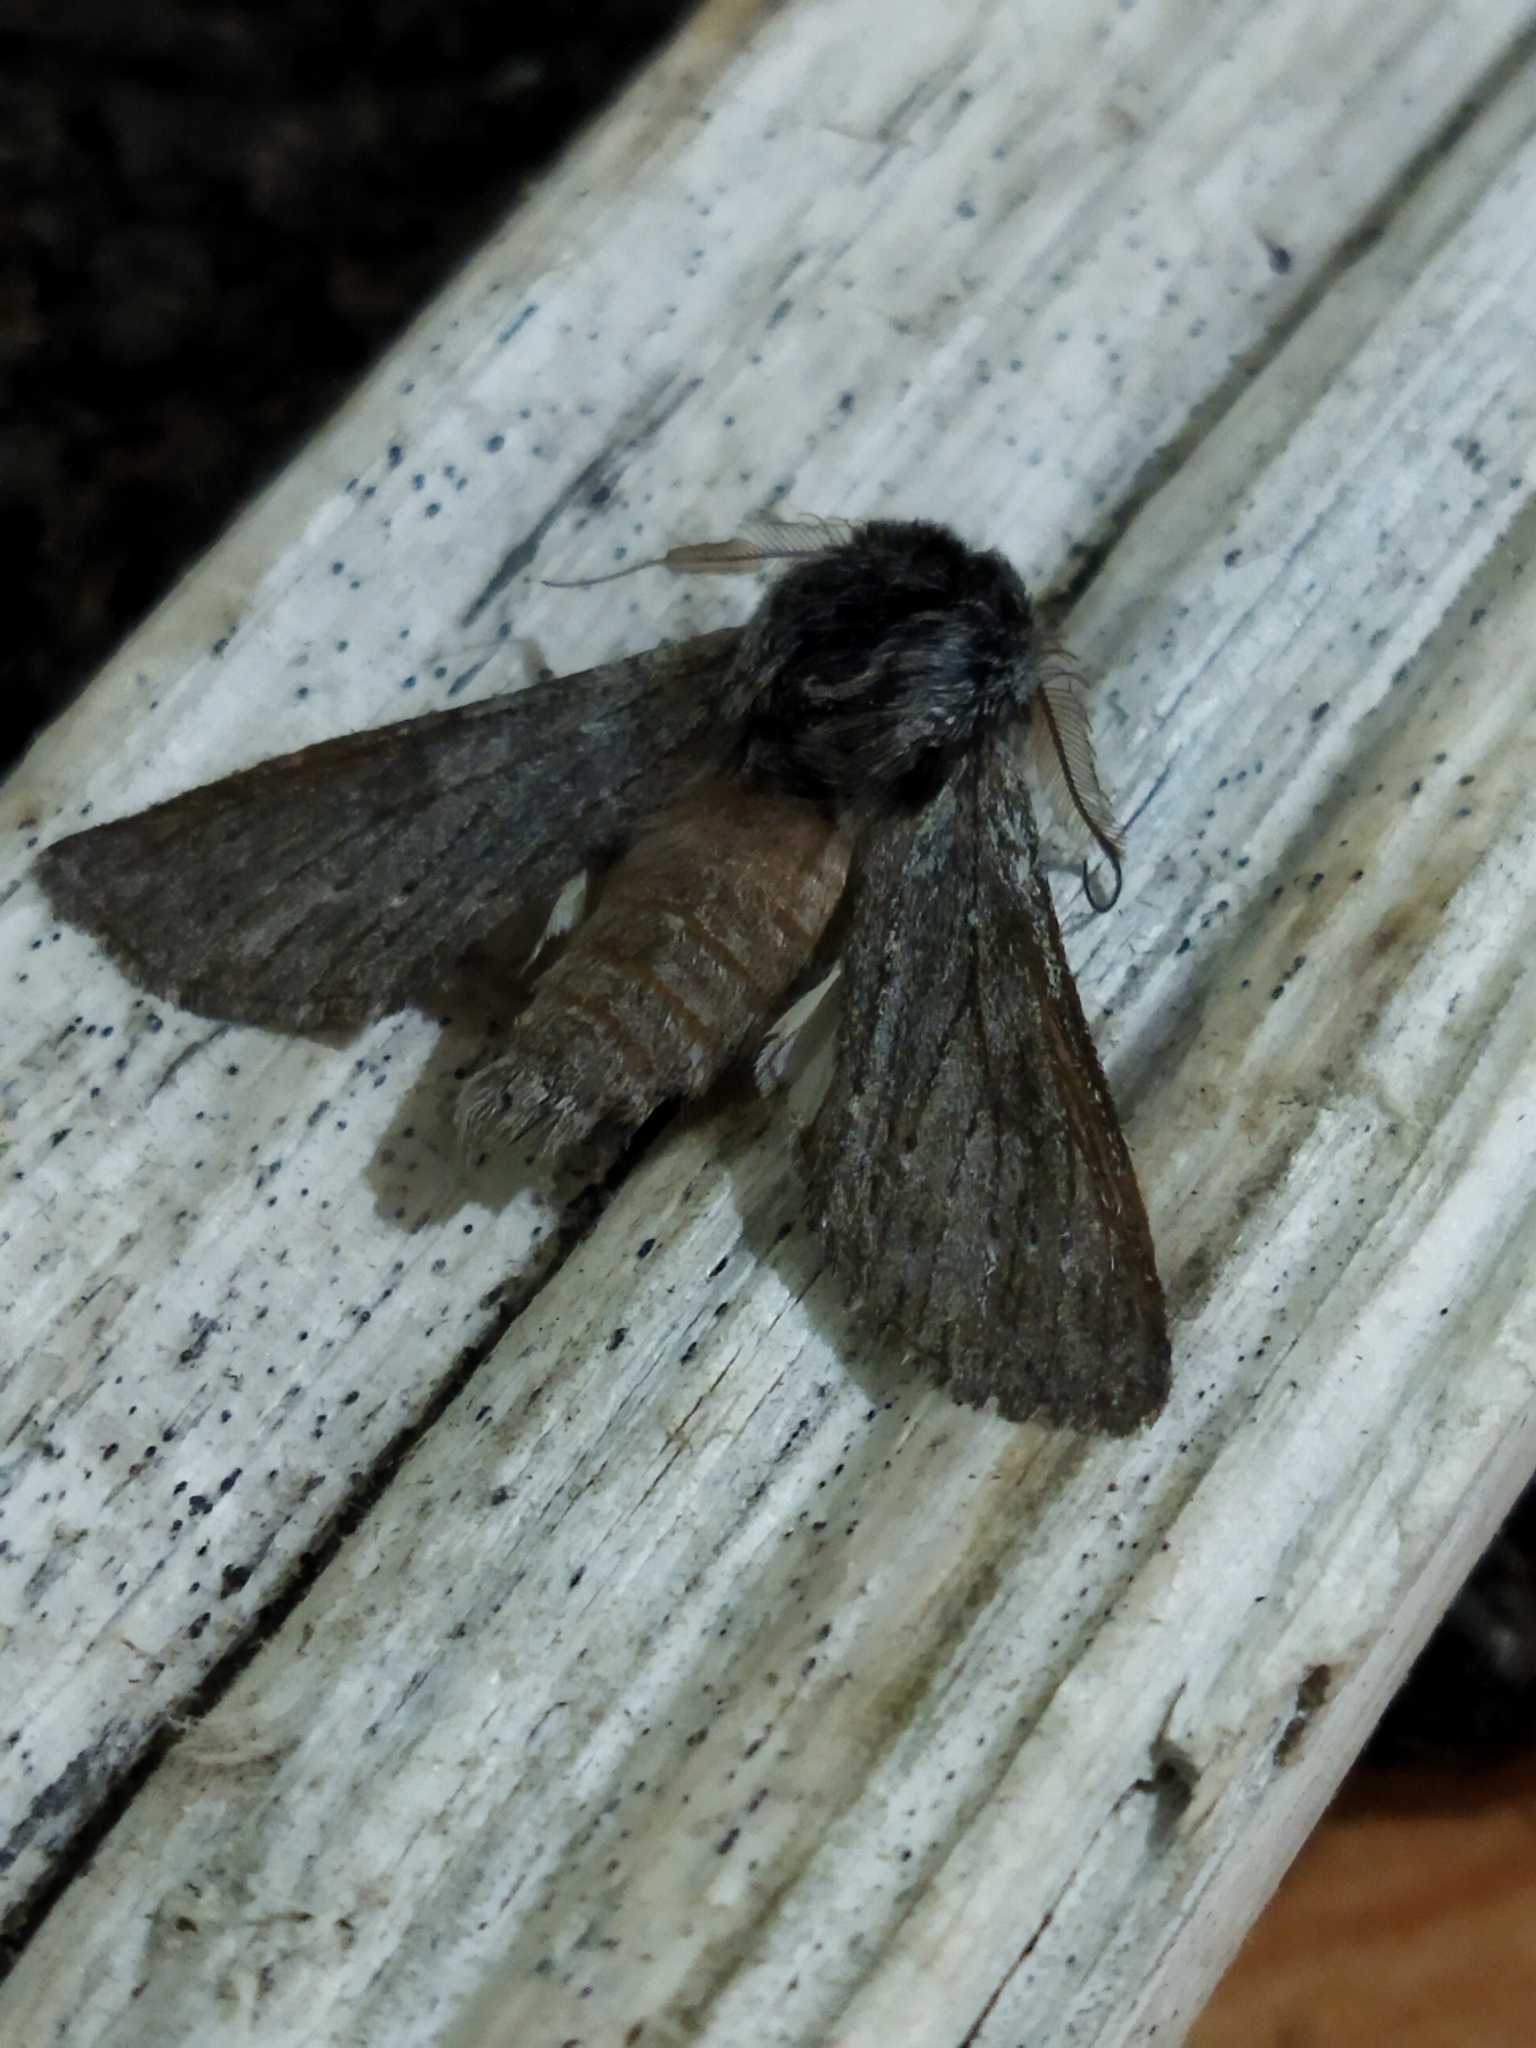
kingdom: Animalia
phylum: Arthropoda
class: Insecta
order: Lepidoptera
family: Notodontidae
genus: Dicranura
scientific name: Dicranura ulmi
